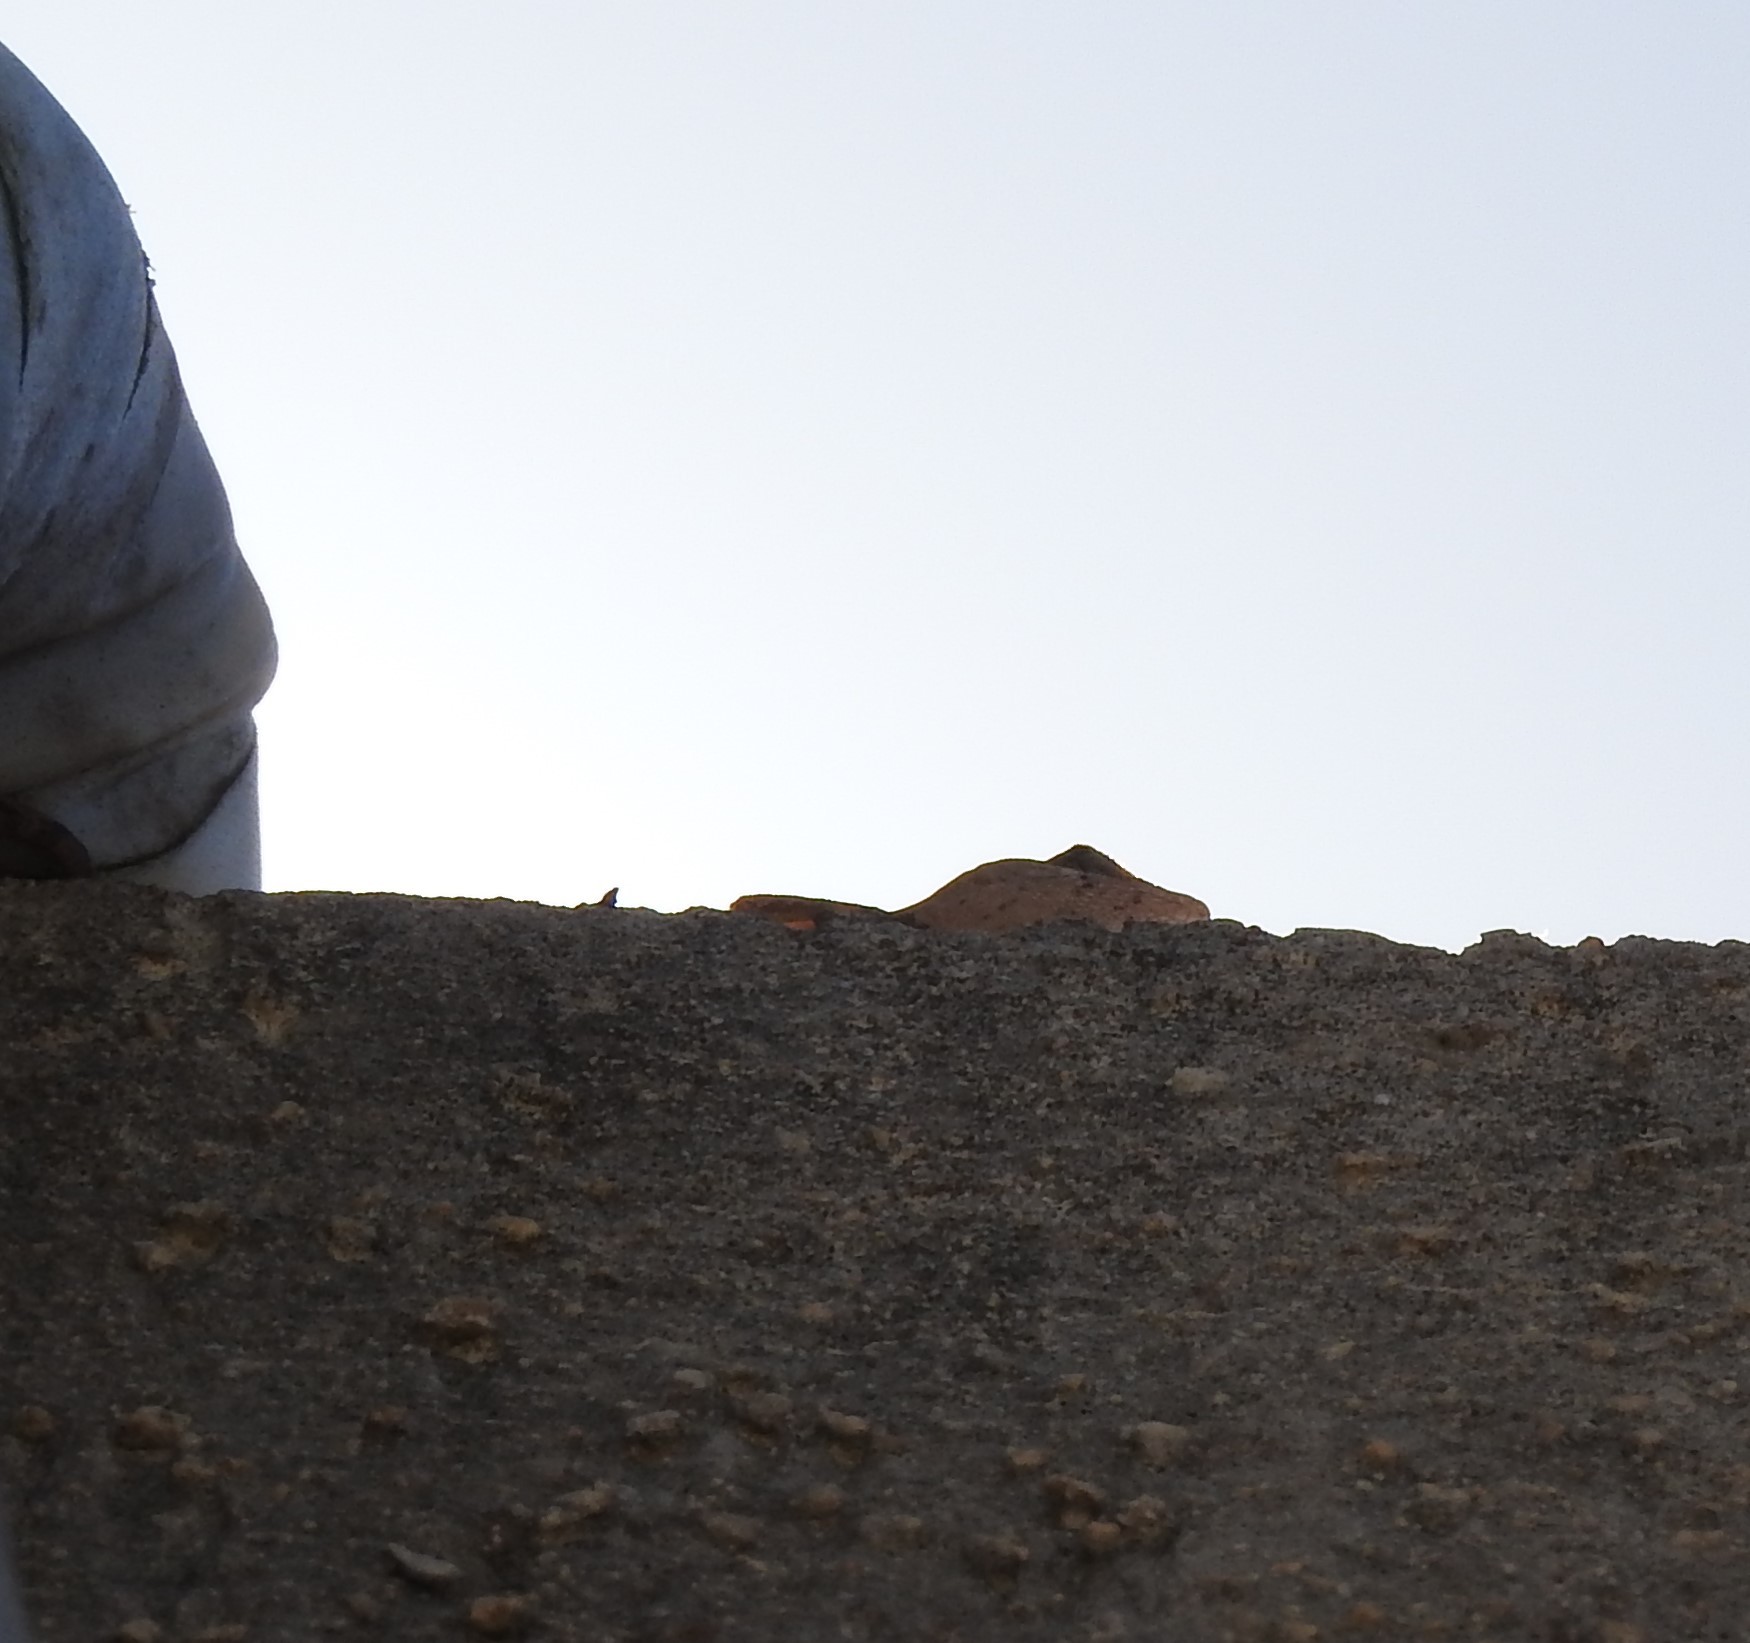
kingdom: Animalia
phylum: Chordata
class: Squamata
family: Dactyloidae
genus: Anolis
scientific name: Anolis sagrei
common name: Brown anole
